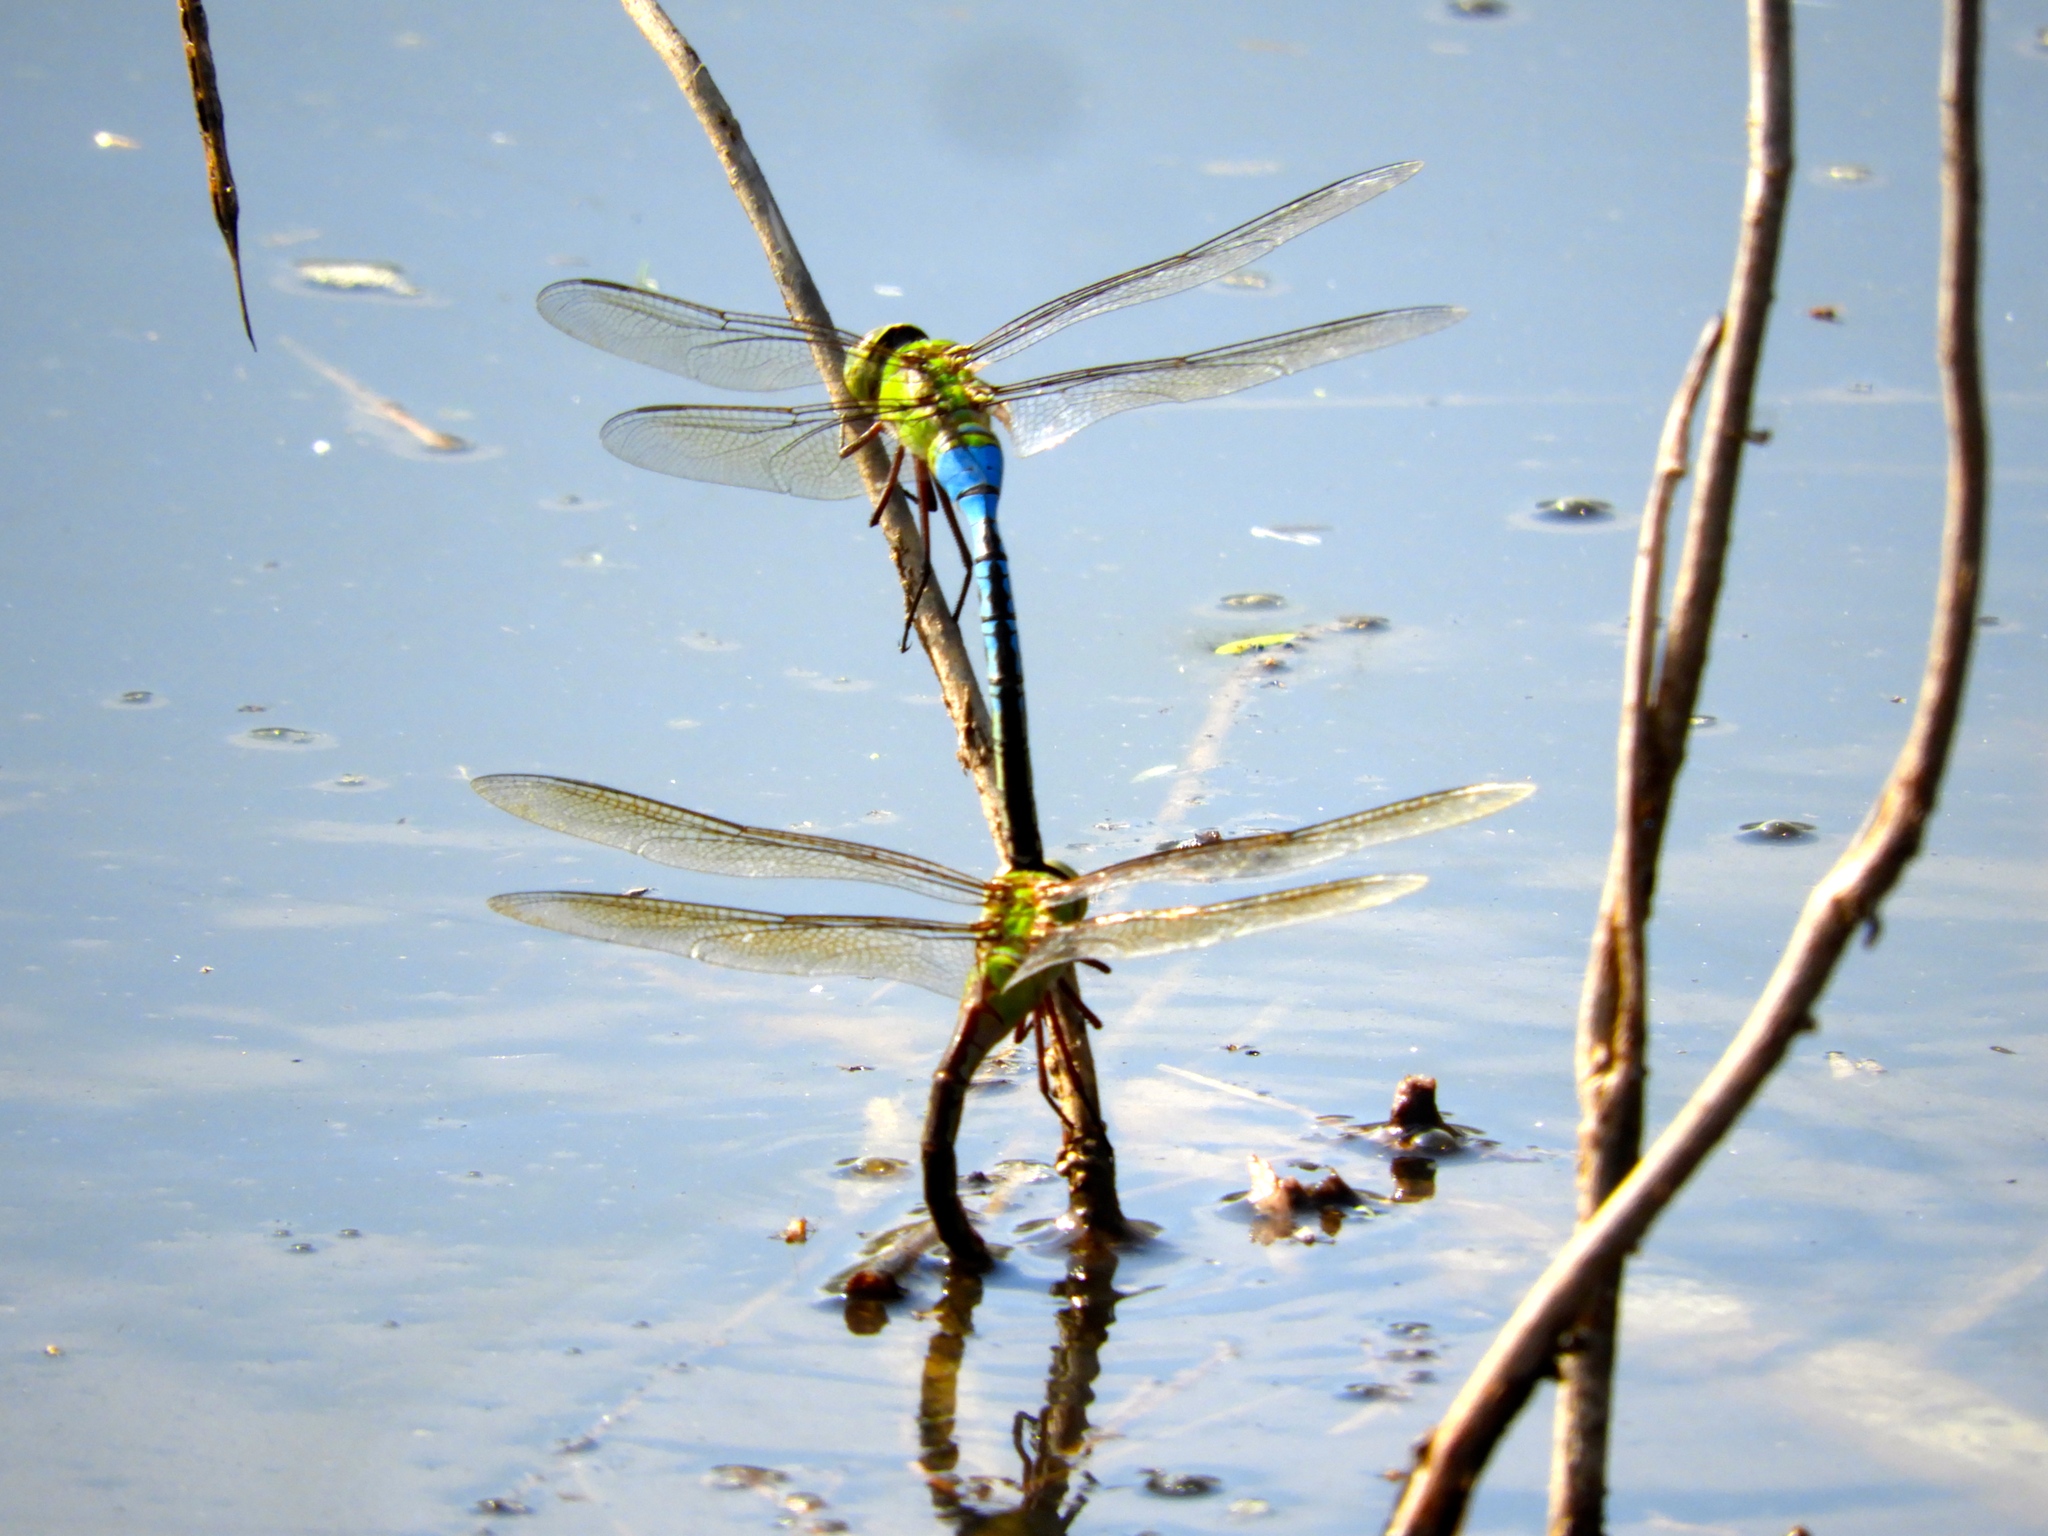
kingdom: Animalia
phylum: Arthropoda
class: Insecta
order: Odonata
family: Aeshnidae
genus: Anax
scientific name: Anax junius
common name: Common green darner
